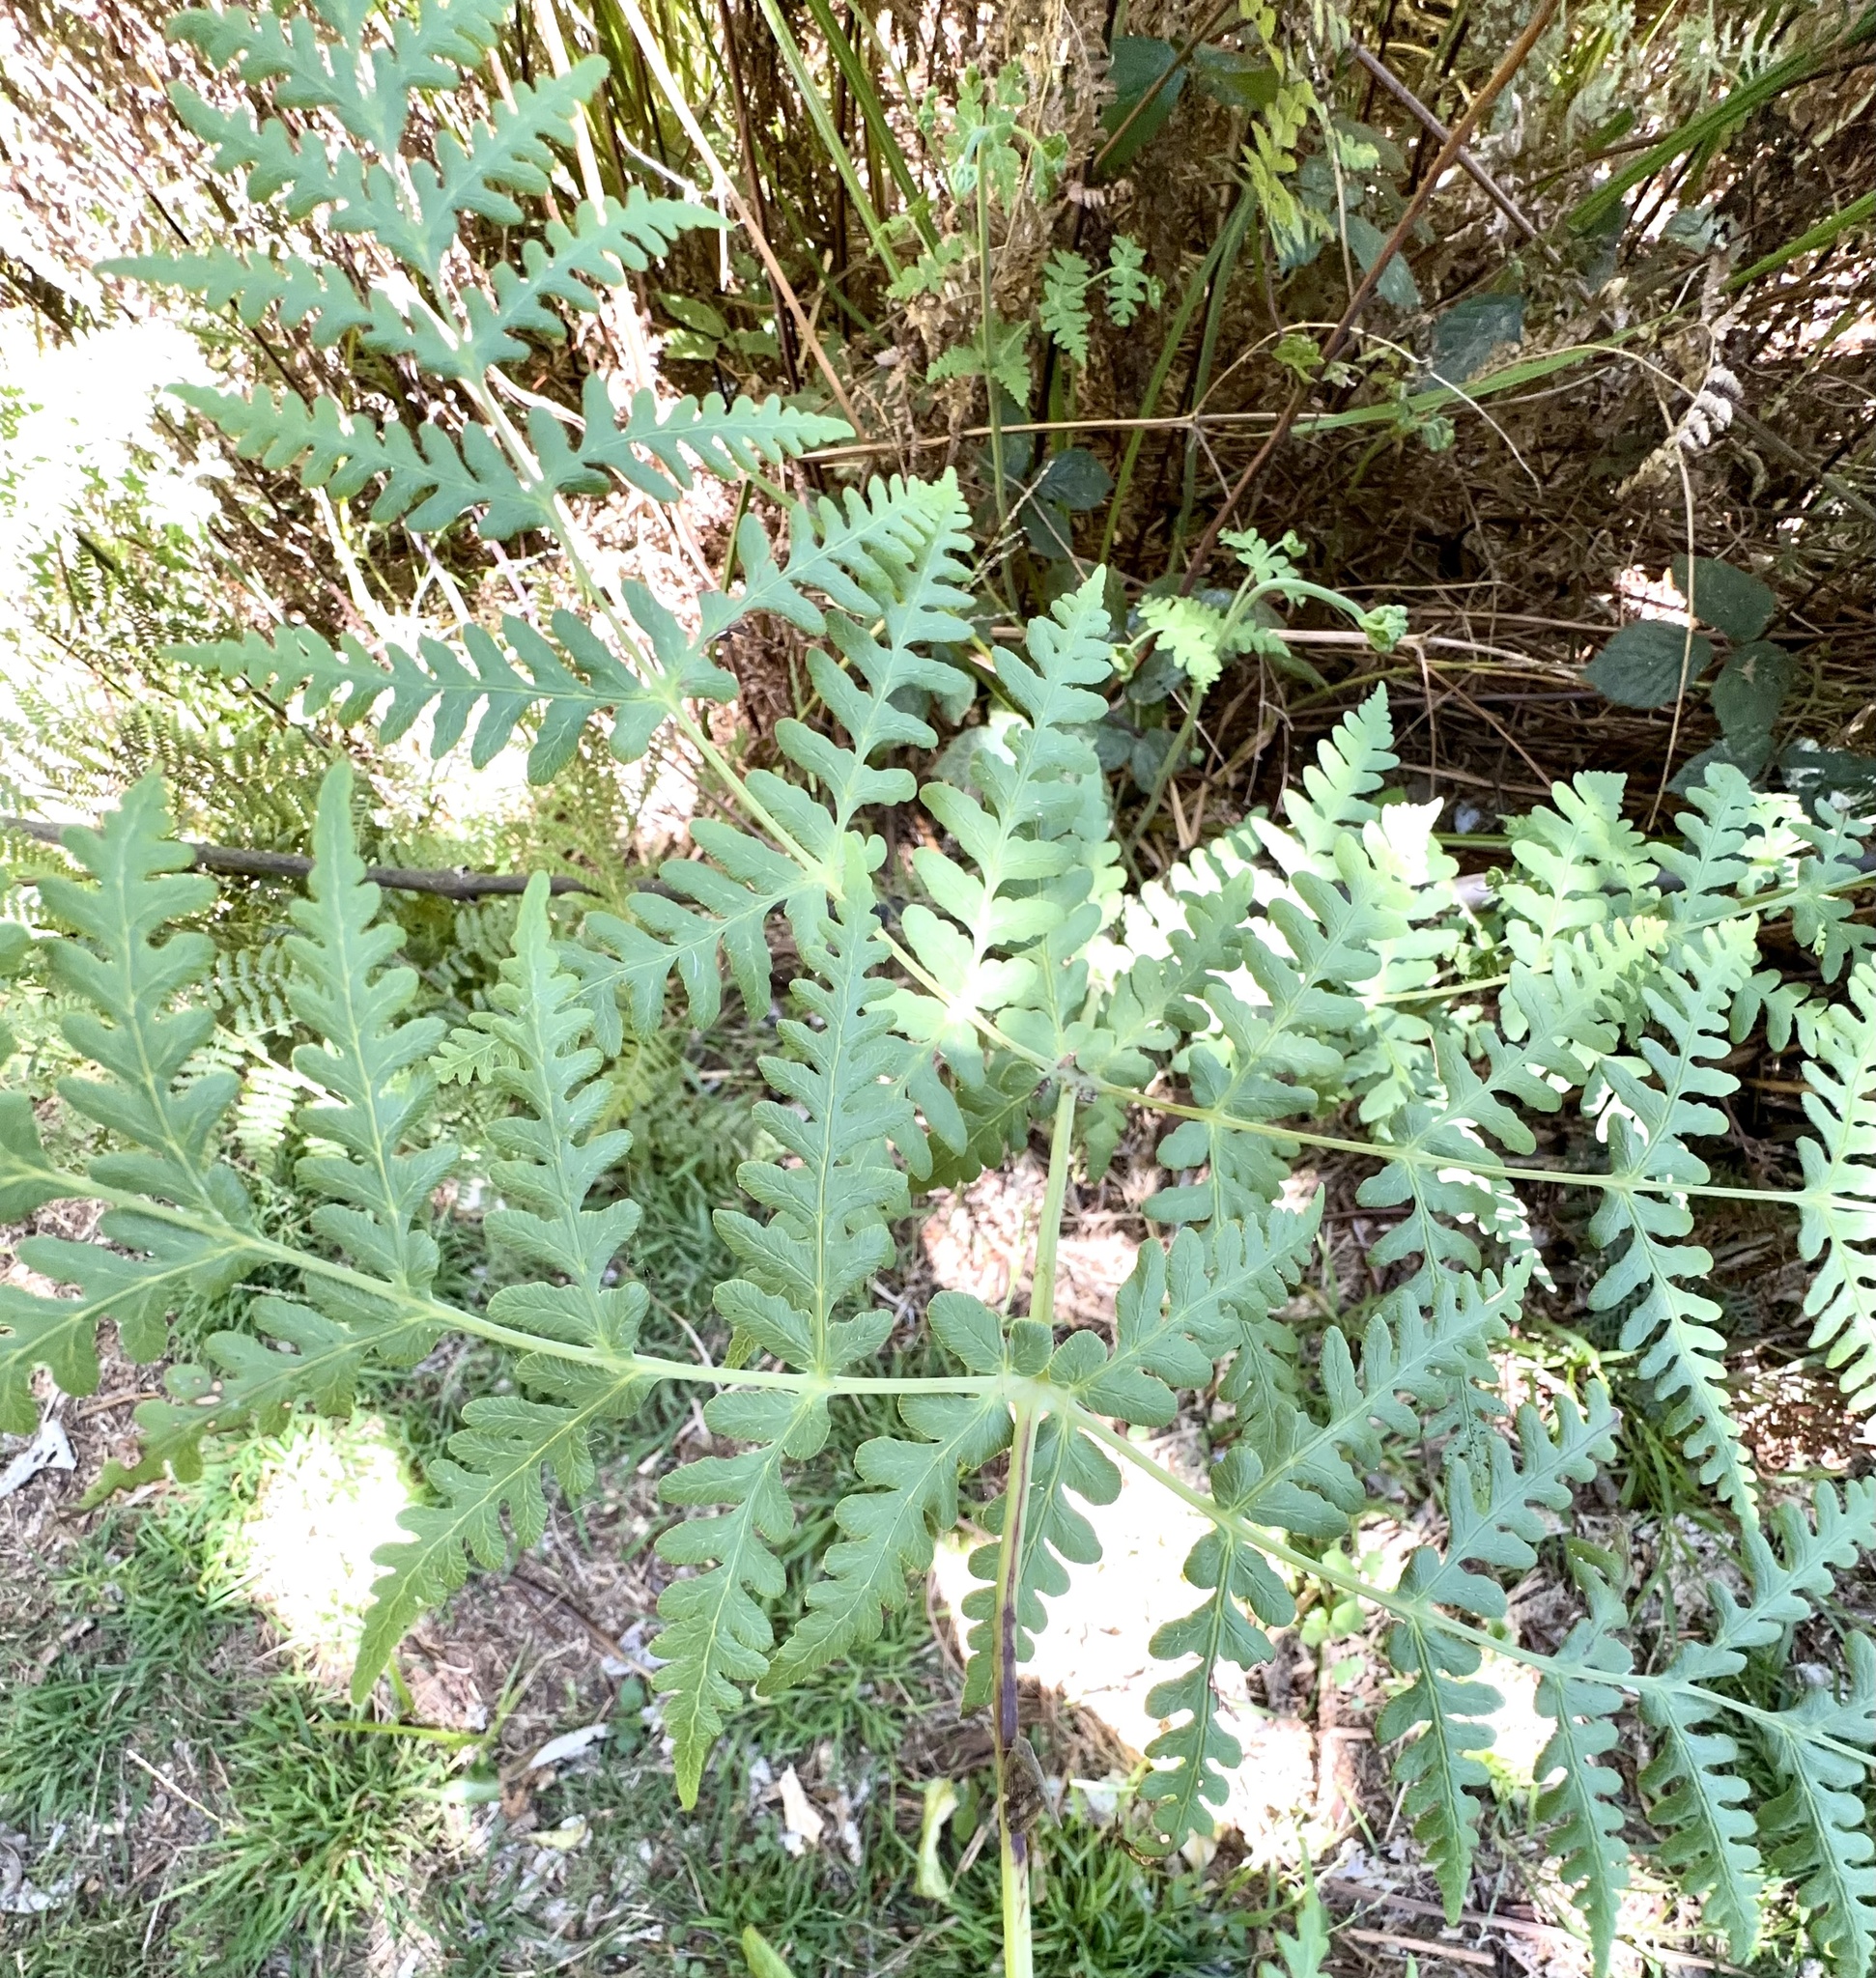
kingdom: Plantae
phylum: Tracheophyta
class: Polypodiopsida
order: Polypodiales
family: Dennstaedtiaceae
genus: Histiopteris
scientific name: Histiopteris incisa
